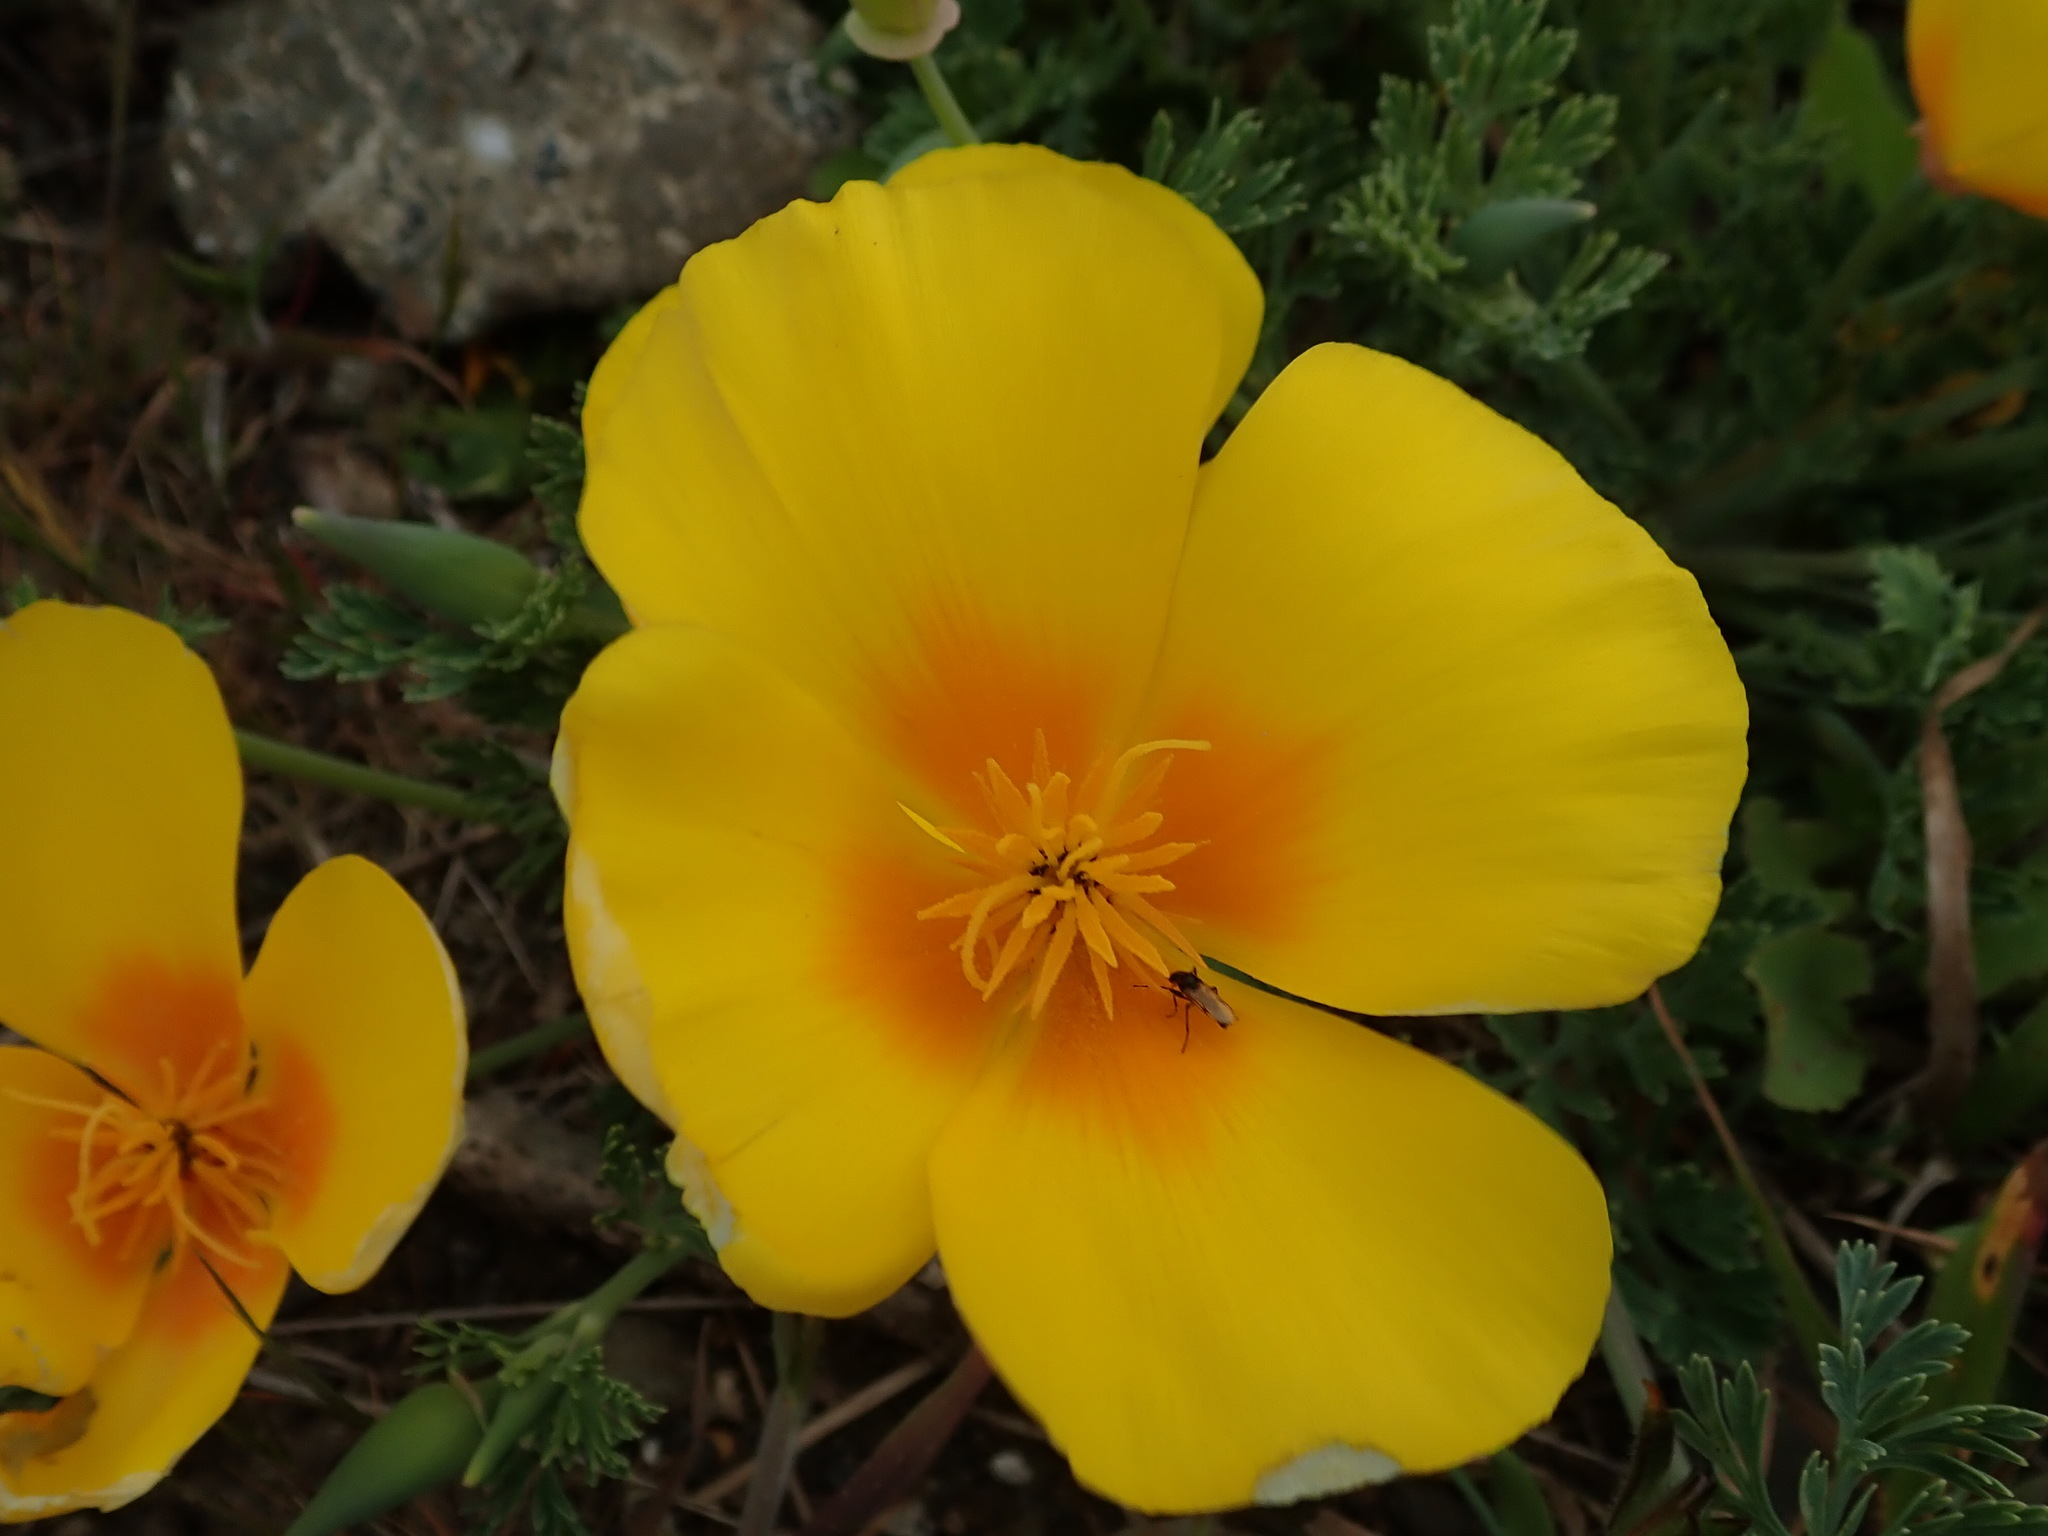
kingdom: Plantae
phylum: Tracheophyta
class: Magnoliopsida
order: Ranunculales
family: Papaveraceae
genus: Eschscholzia
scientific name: Eschscholzia californica
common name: California poppy
